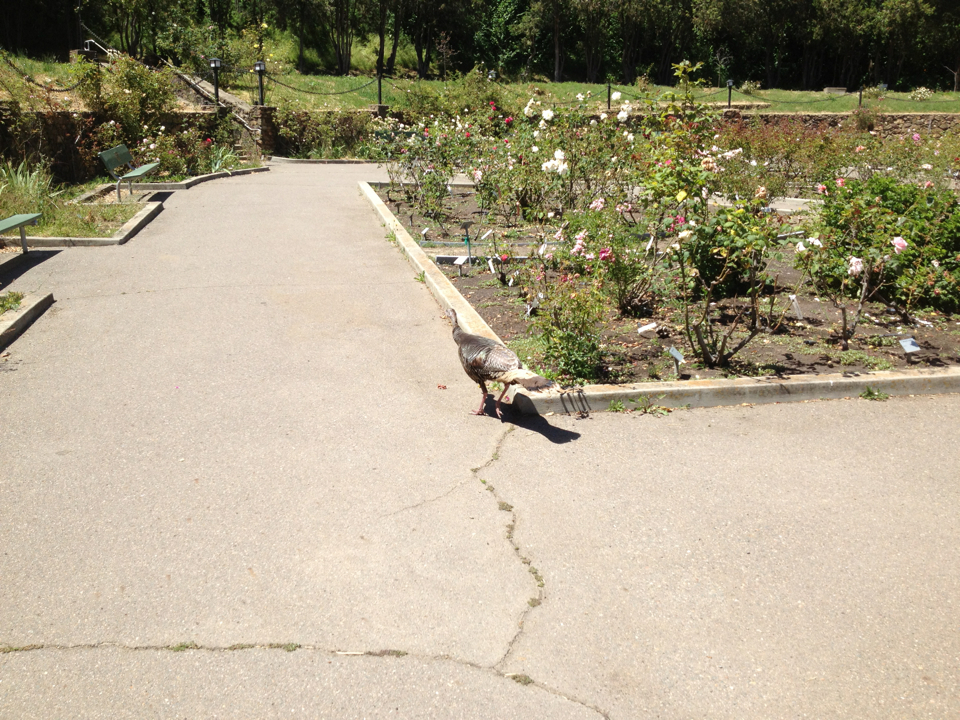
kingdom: Animalia
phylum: Chordata
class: Aves
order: Galliformes
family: Phasianidae
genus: Meleagris
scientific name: Meleagris gallopavo
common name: Wild turkey
